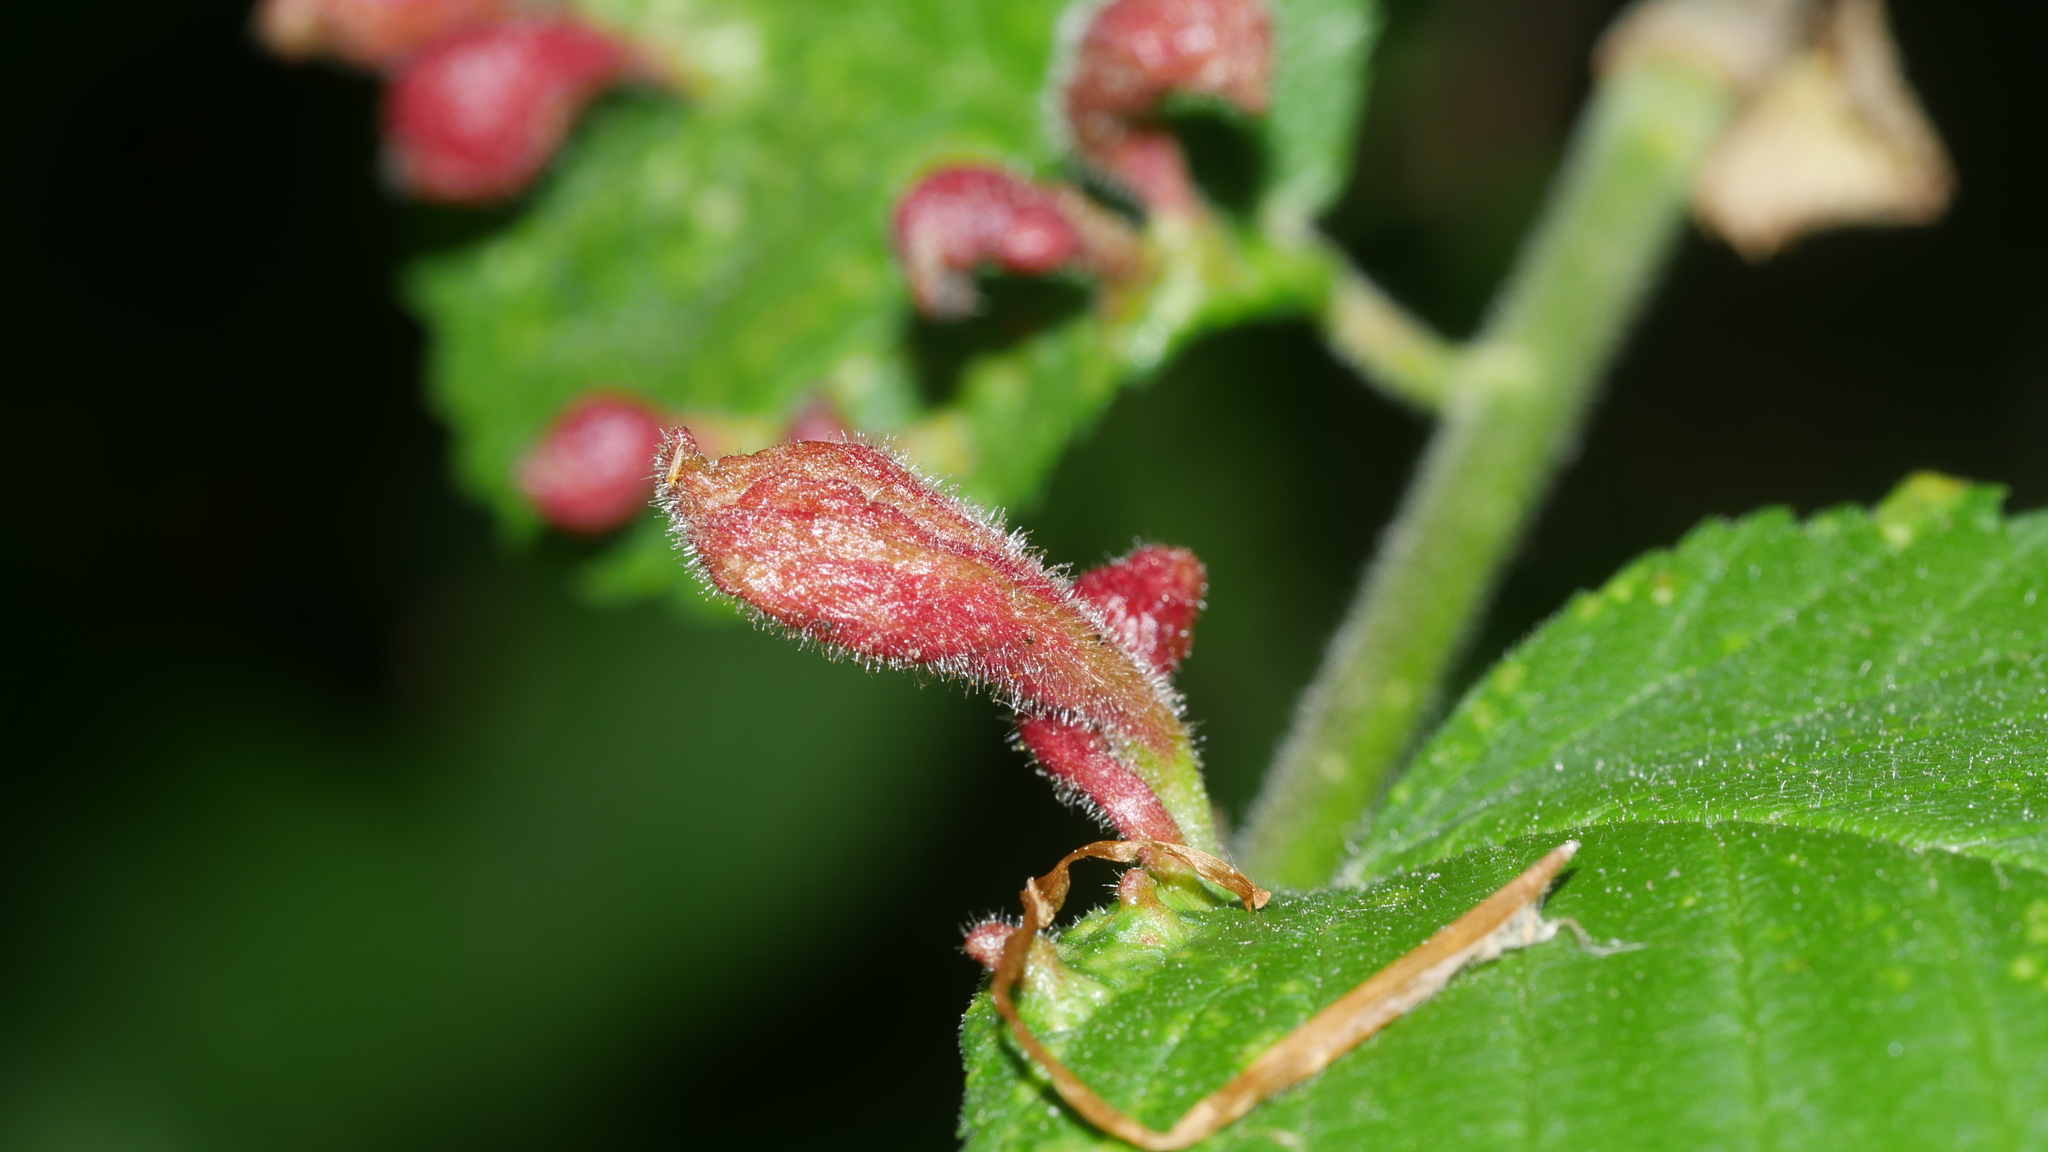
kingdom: Animalia
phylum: Arthropoda
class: Insecta
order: Hemiptera
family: Aphididae
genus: Tetraneura
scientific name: Tetraneura nigriabdominalis
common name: Aphid
